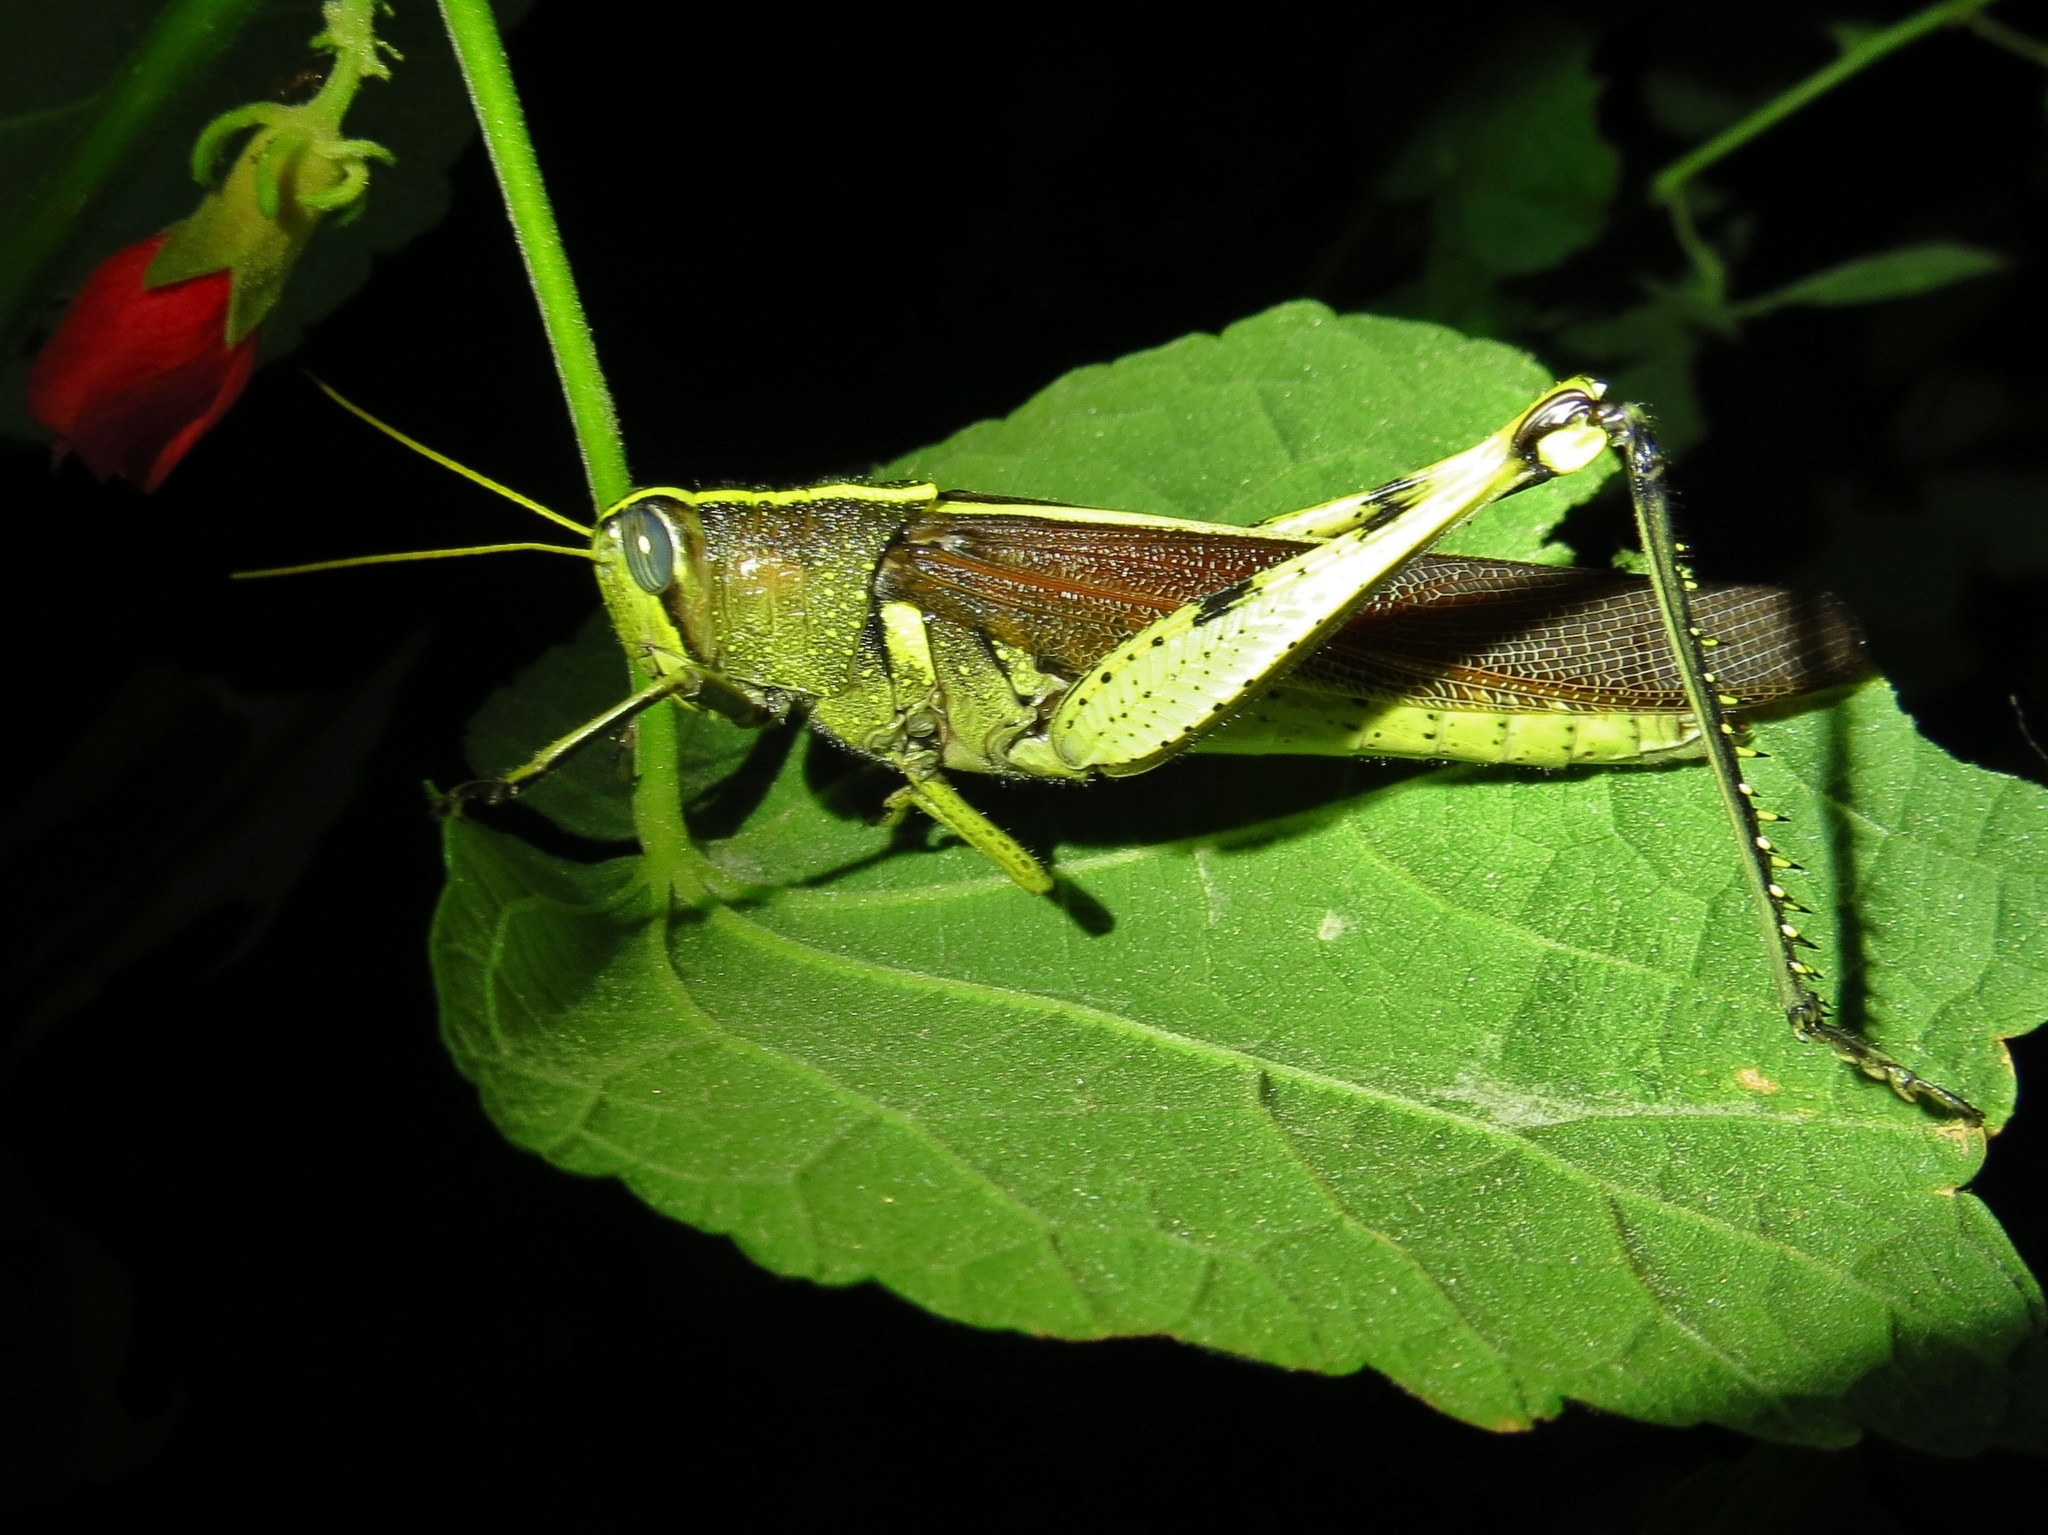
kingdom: Animalia
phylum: Arthropoda
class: Insecta
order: Orthoptera
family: Acrididae
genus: Schistocerca
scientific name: Schistocerca obscura
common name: Obscure bird grasshopper
